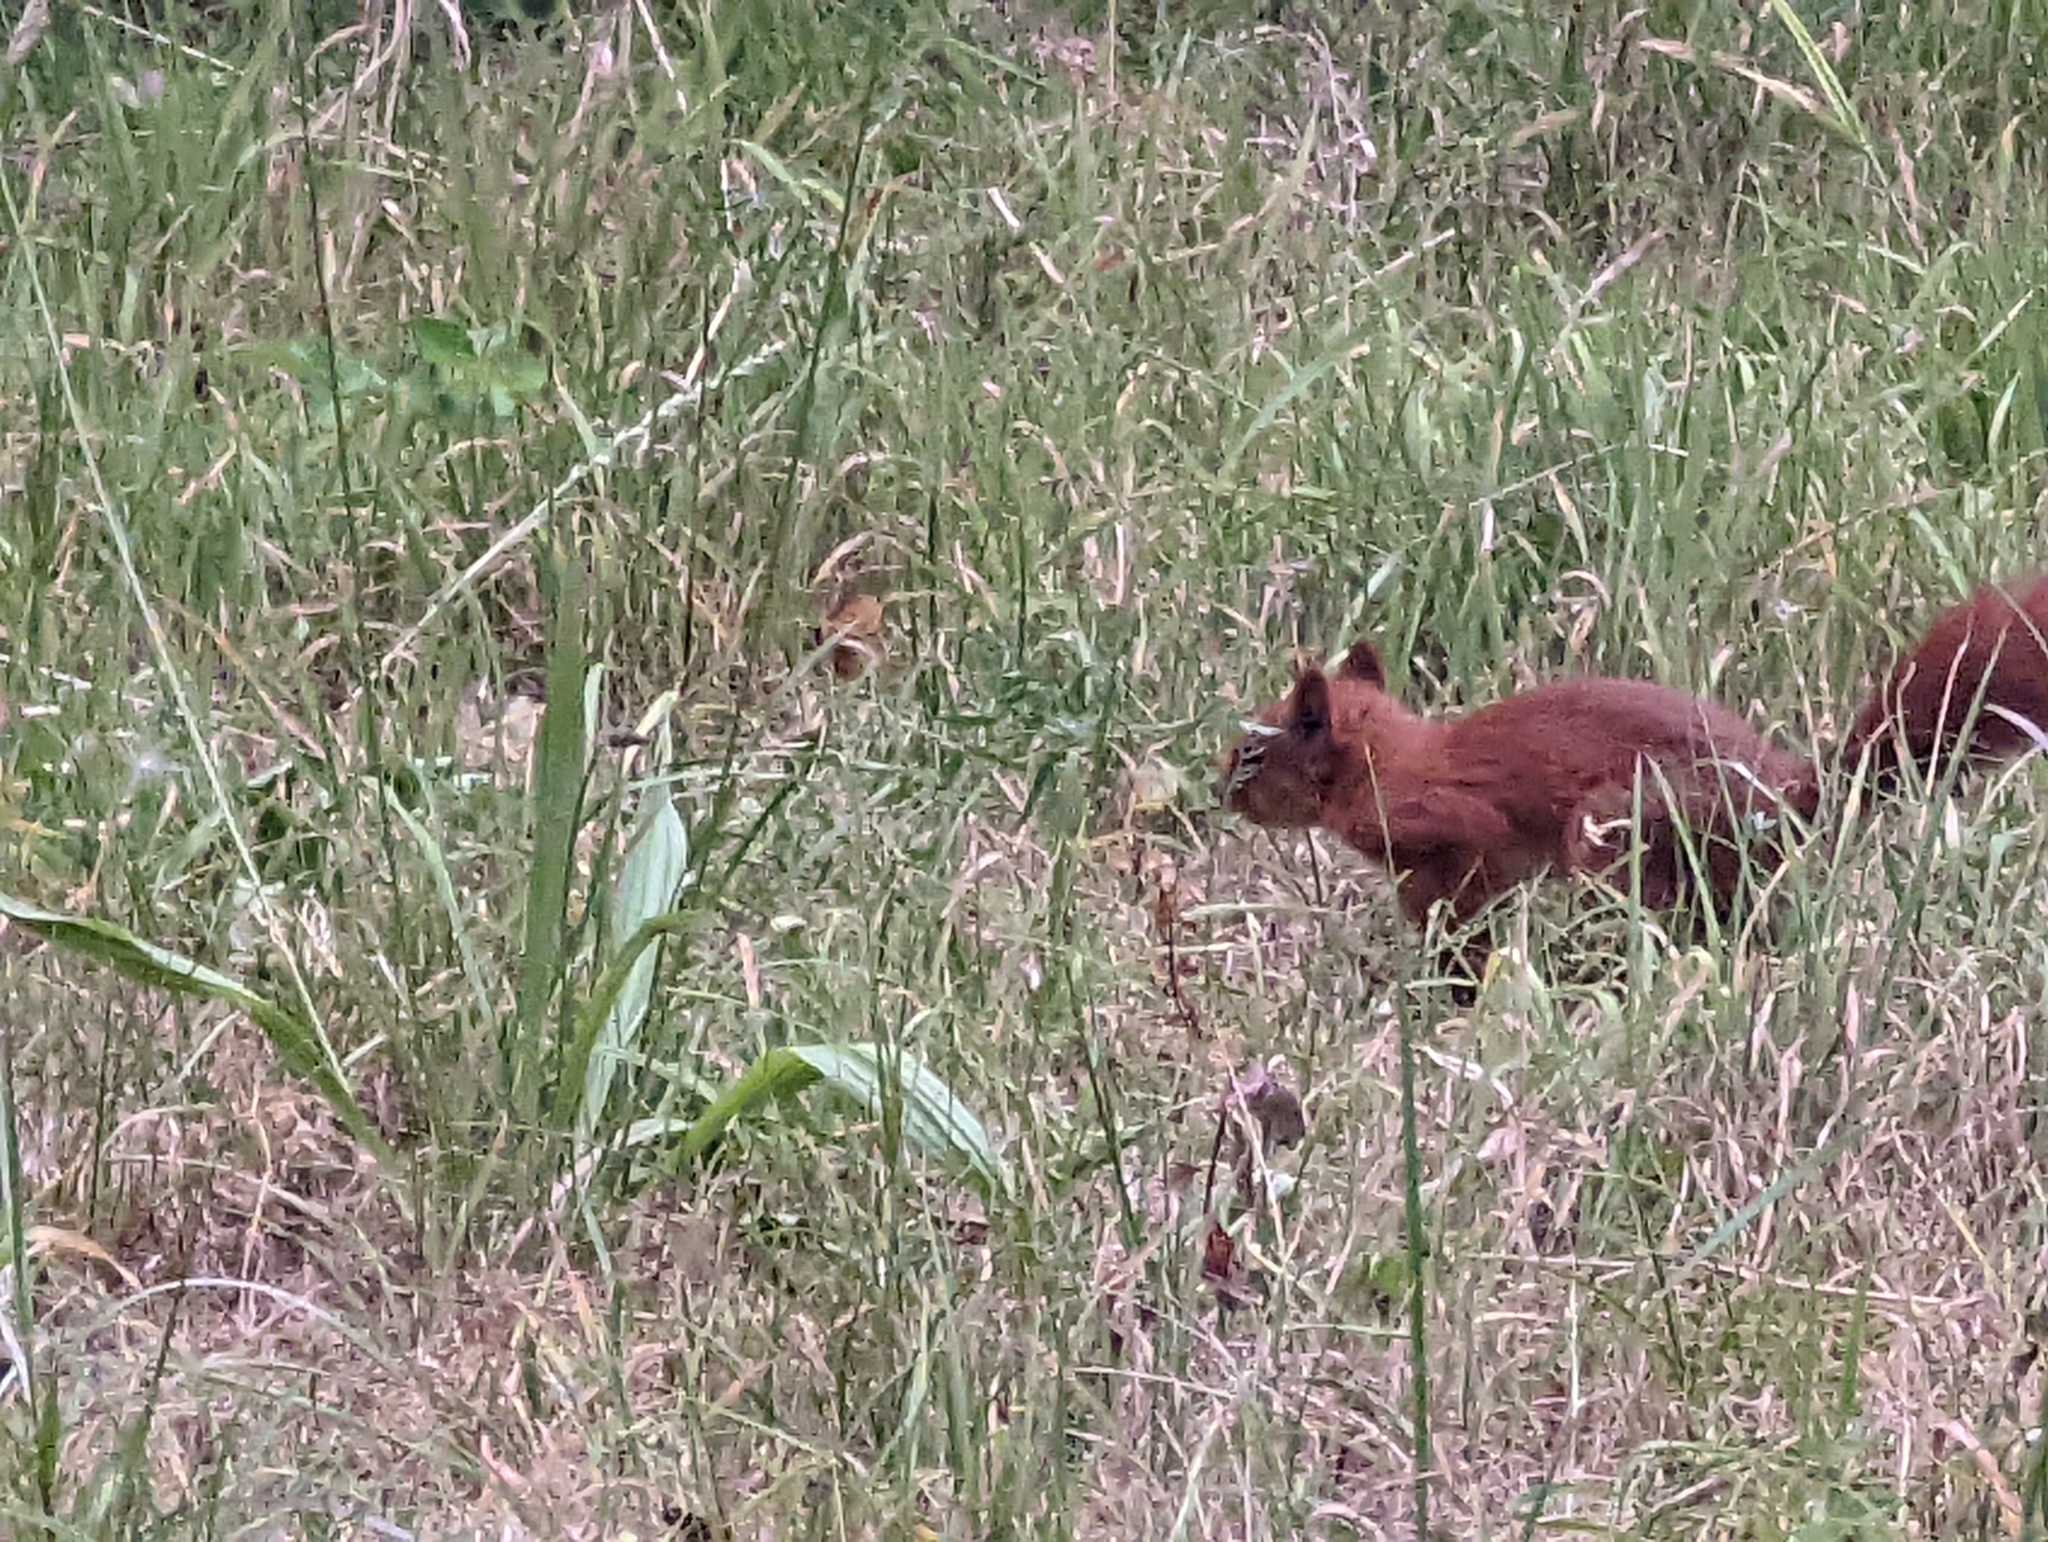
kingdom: Animalia
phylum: Chordata
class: Mammalia
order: Rodentia
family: Sciuridae
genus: Sciurus
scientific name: Sciurus vulgaris
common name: Eurasian red squirrel
